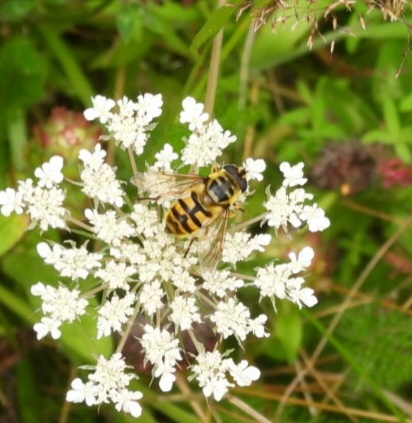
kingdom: Animalia
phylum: Arthropoda
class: Insecta
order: Diptera
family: Syrphidae
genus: Myathropa
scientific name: Myathropa florea
